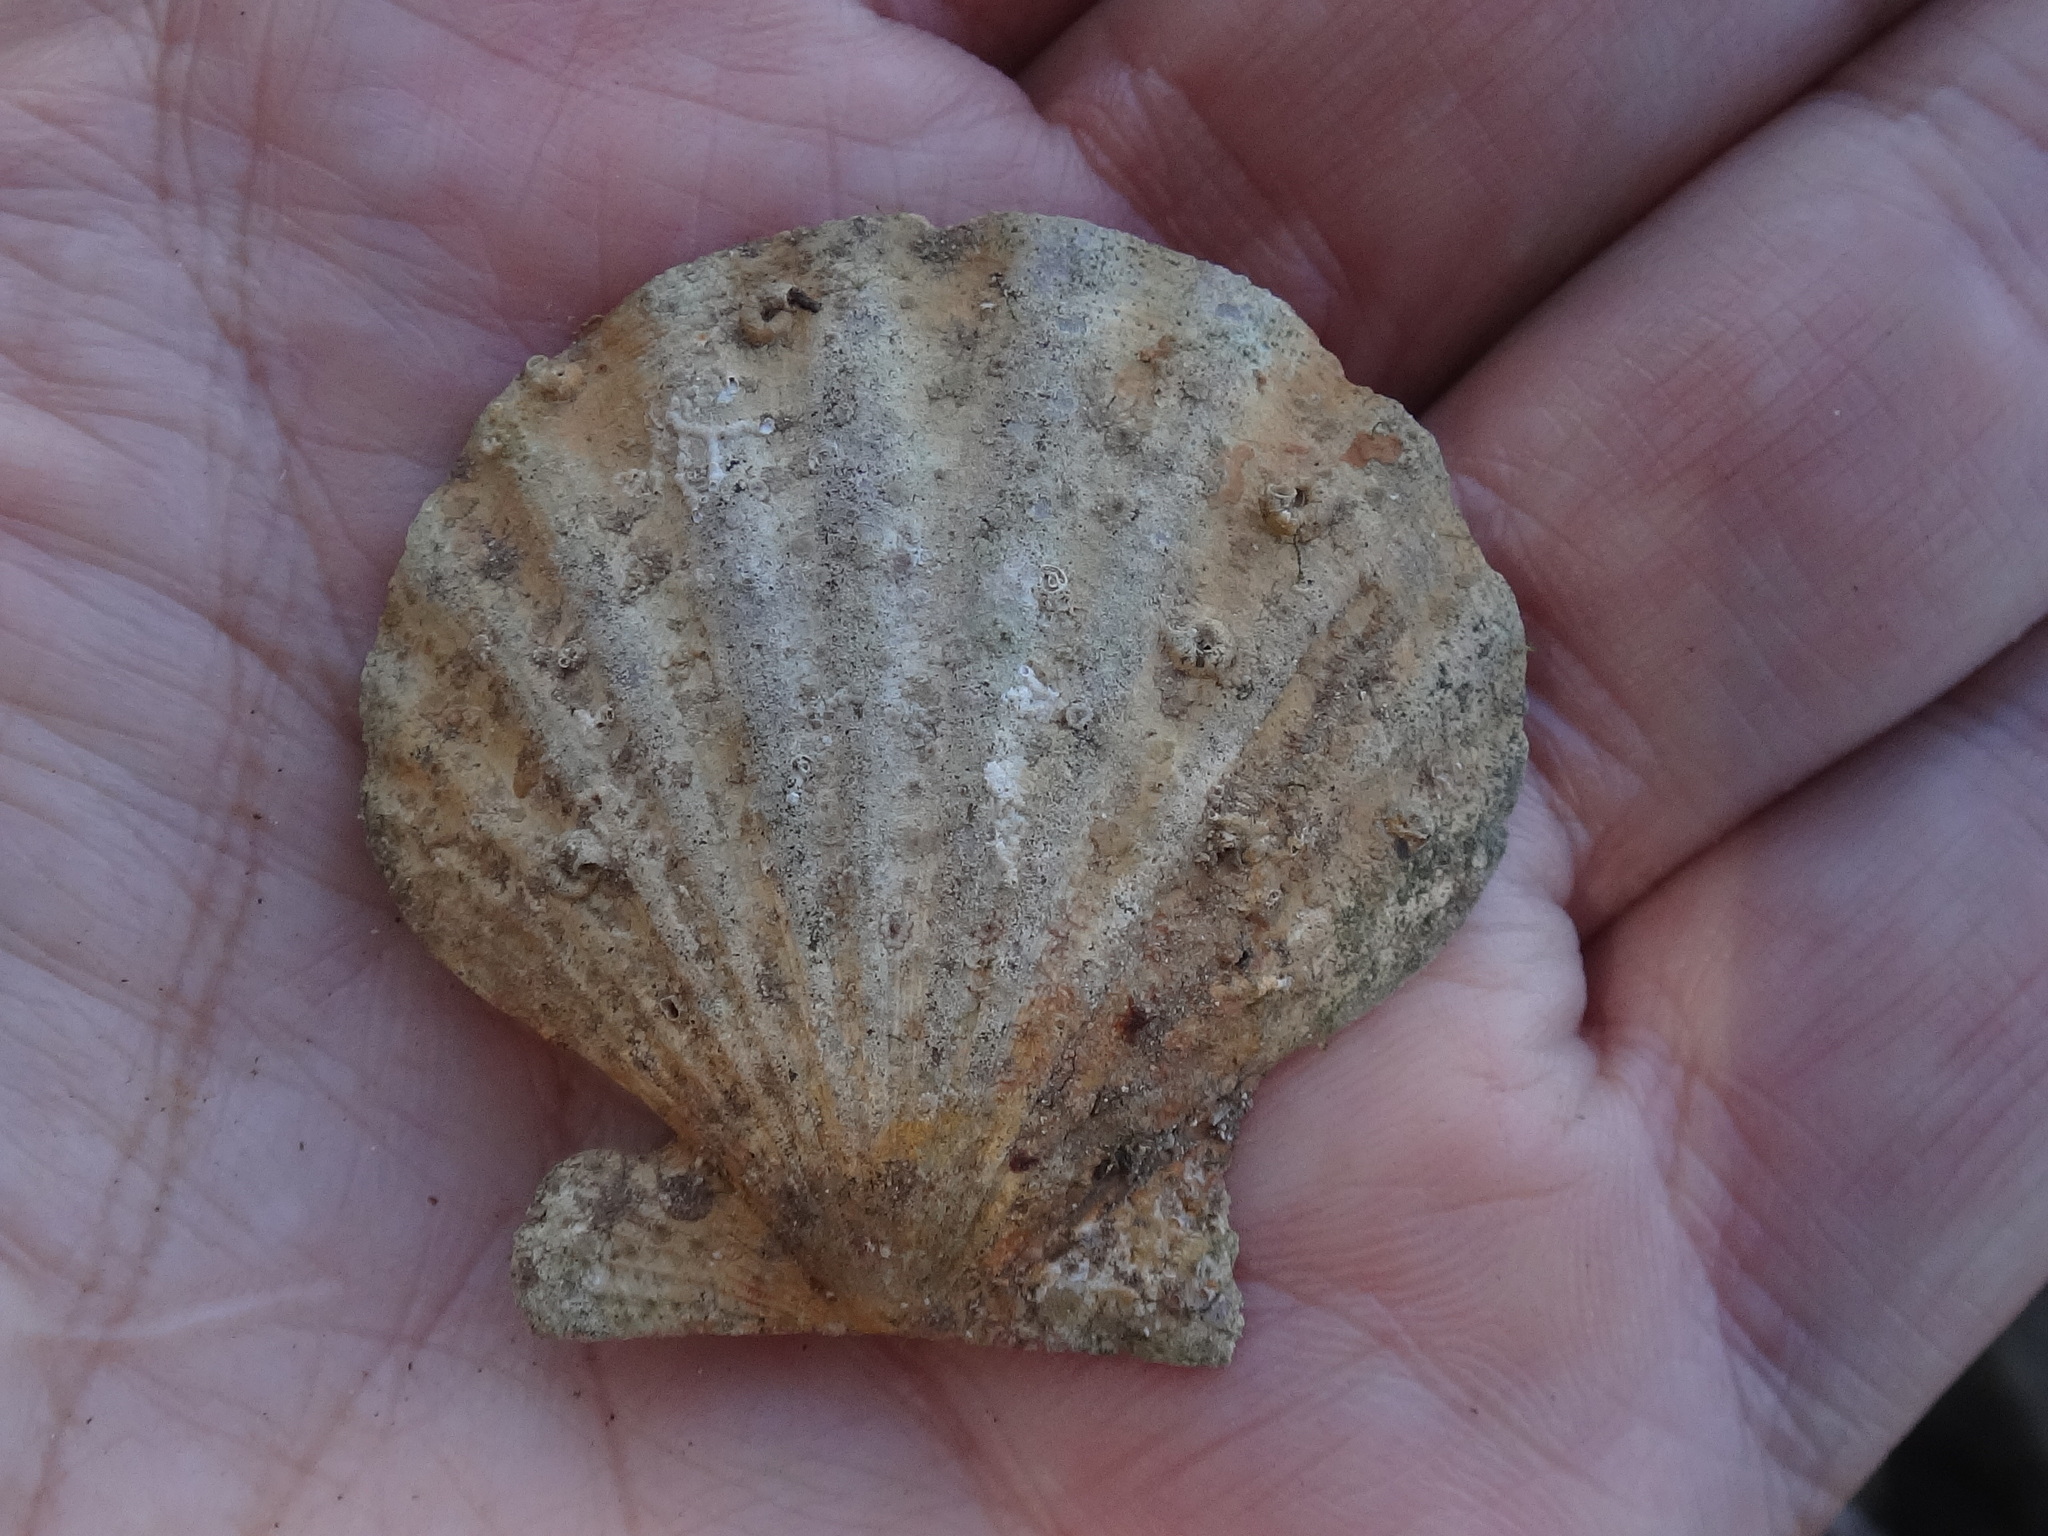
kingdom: Animalia
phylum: Mollusca
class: Bivalvia
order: Pectinida
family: Pectinidae
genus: Flexopecten
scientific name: Flexopecten glaber
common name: Smooth scallop
